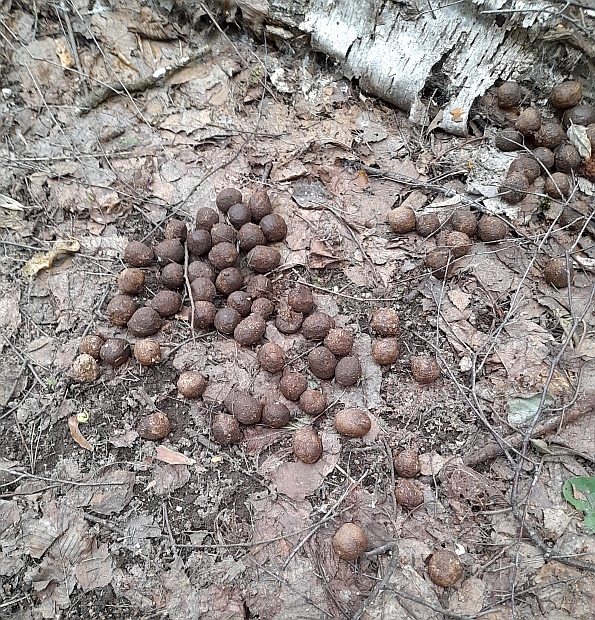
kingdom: Animalia
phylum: Chordata
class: Mammalia
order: Artiodactyla
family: Cervidae
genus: Alces
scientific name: Alces alces
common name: Moose
